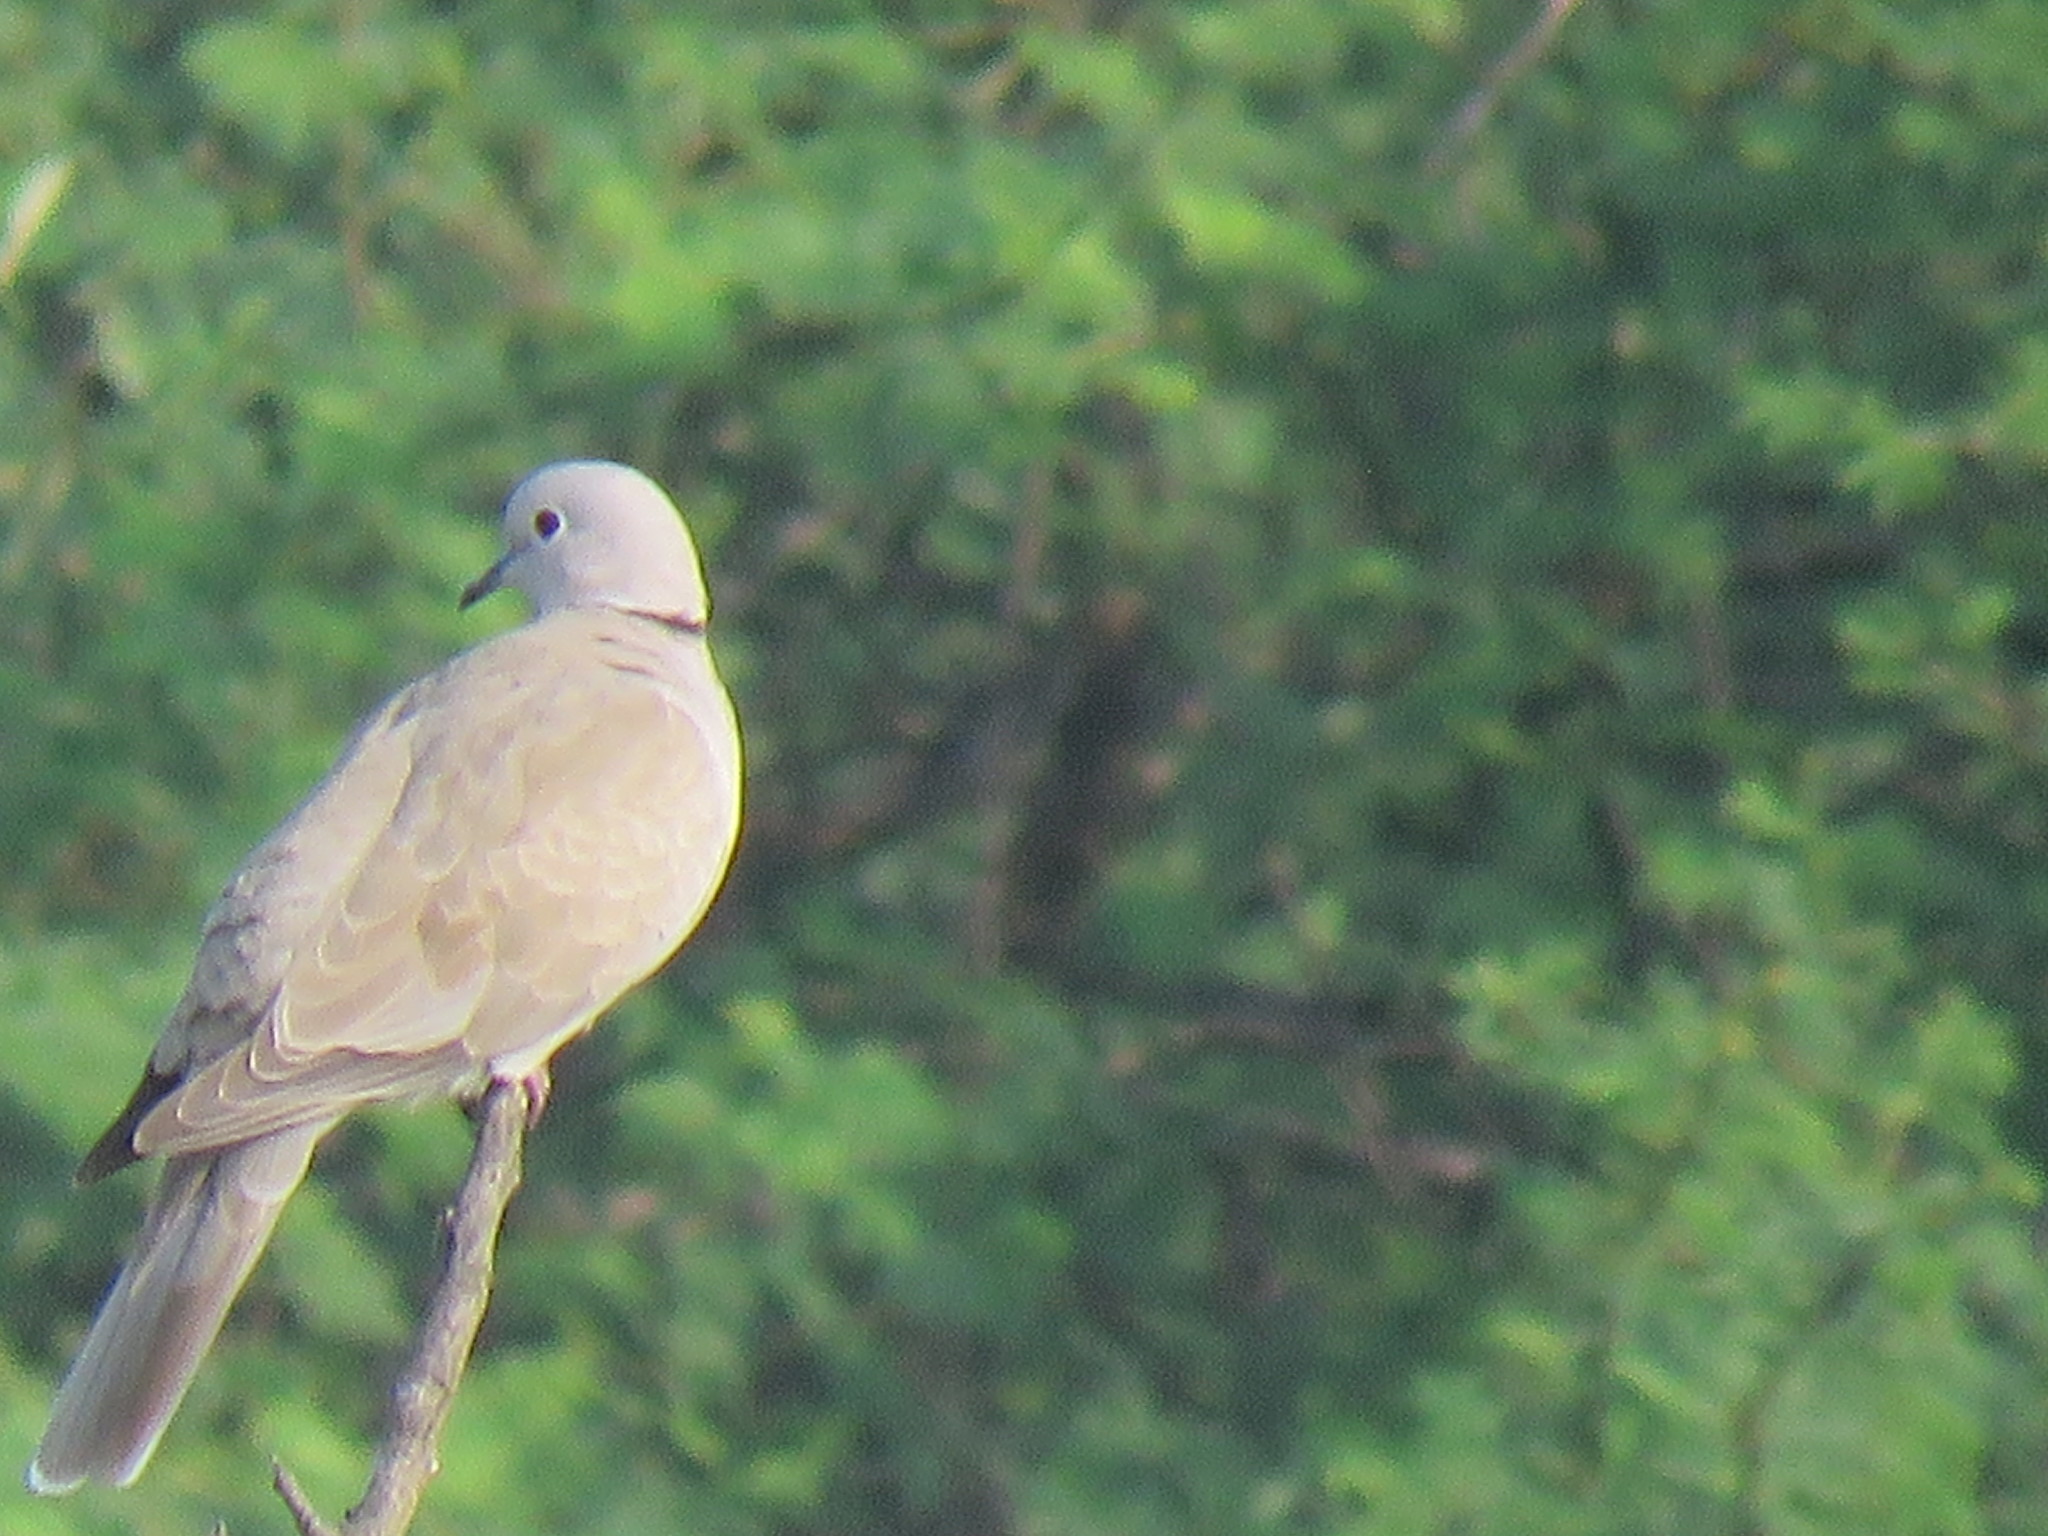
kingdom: Animalia
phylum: Chordata
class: Aves
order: Columbiformes
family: Columbidae
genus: Streptopelia
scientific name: Streptopelia decaocto
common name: Eurasian collared dove
